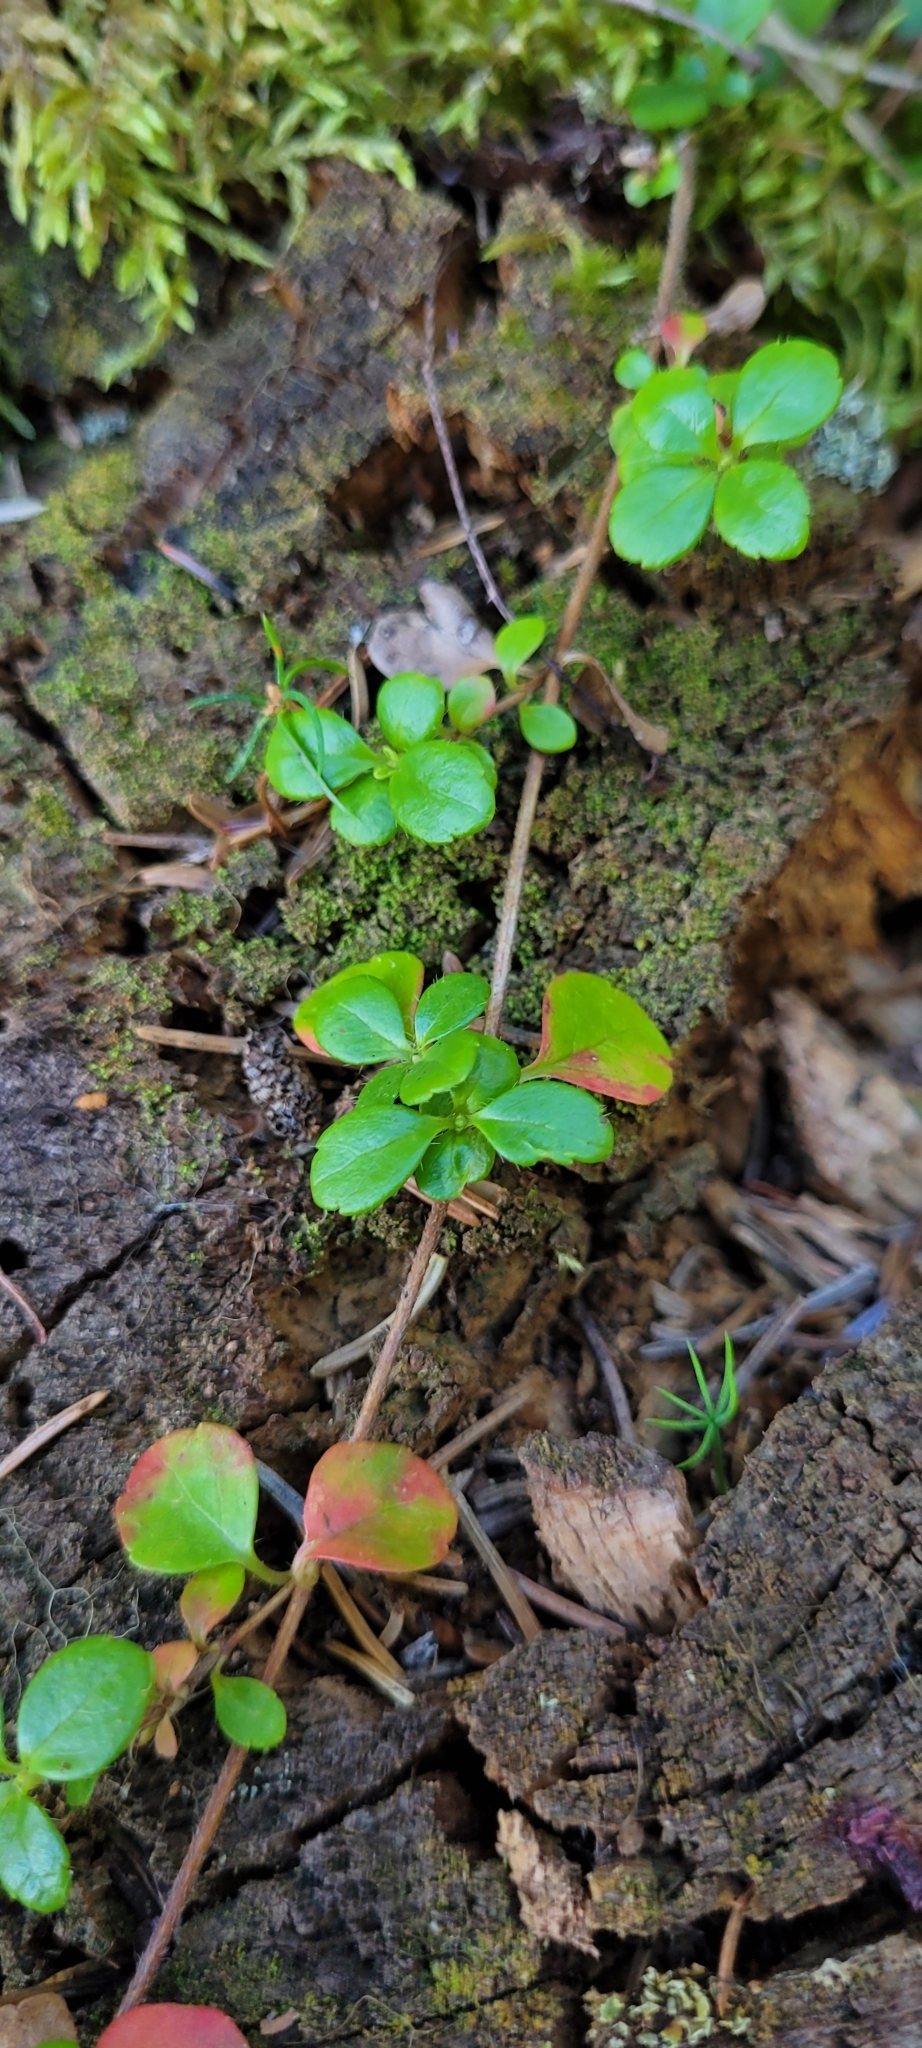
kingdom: Plantae
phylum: Tracheophyta
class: Magnoliopsida
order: Dipsacales
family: Caprifoliaceae
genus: Linnaea
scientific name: Linnaea borealis
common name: Twinflower
